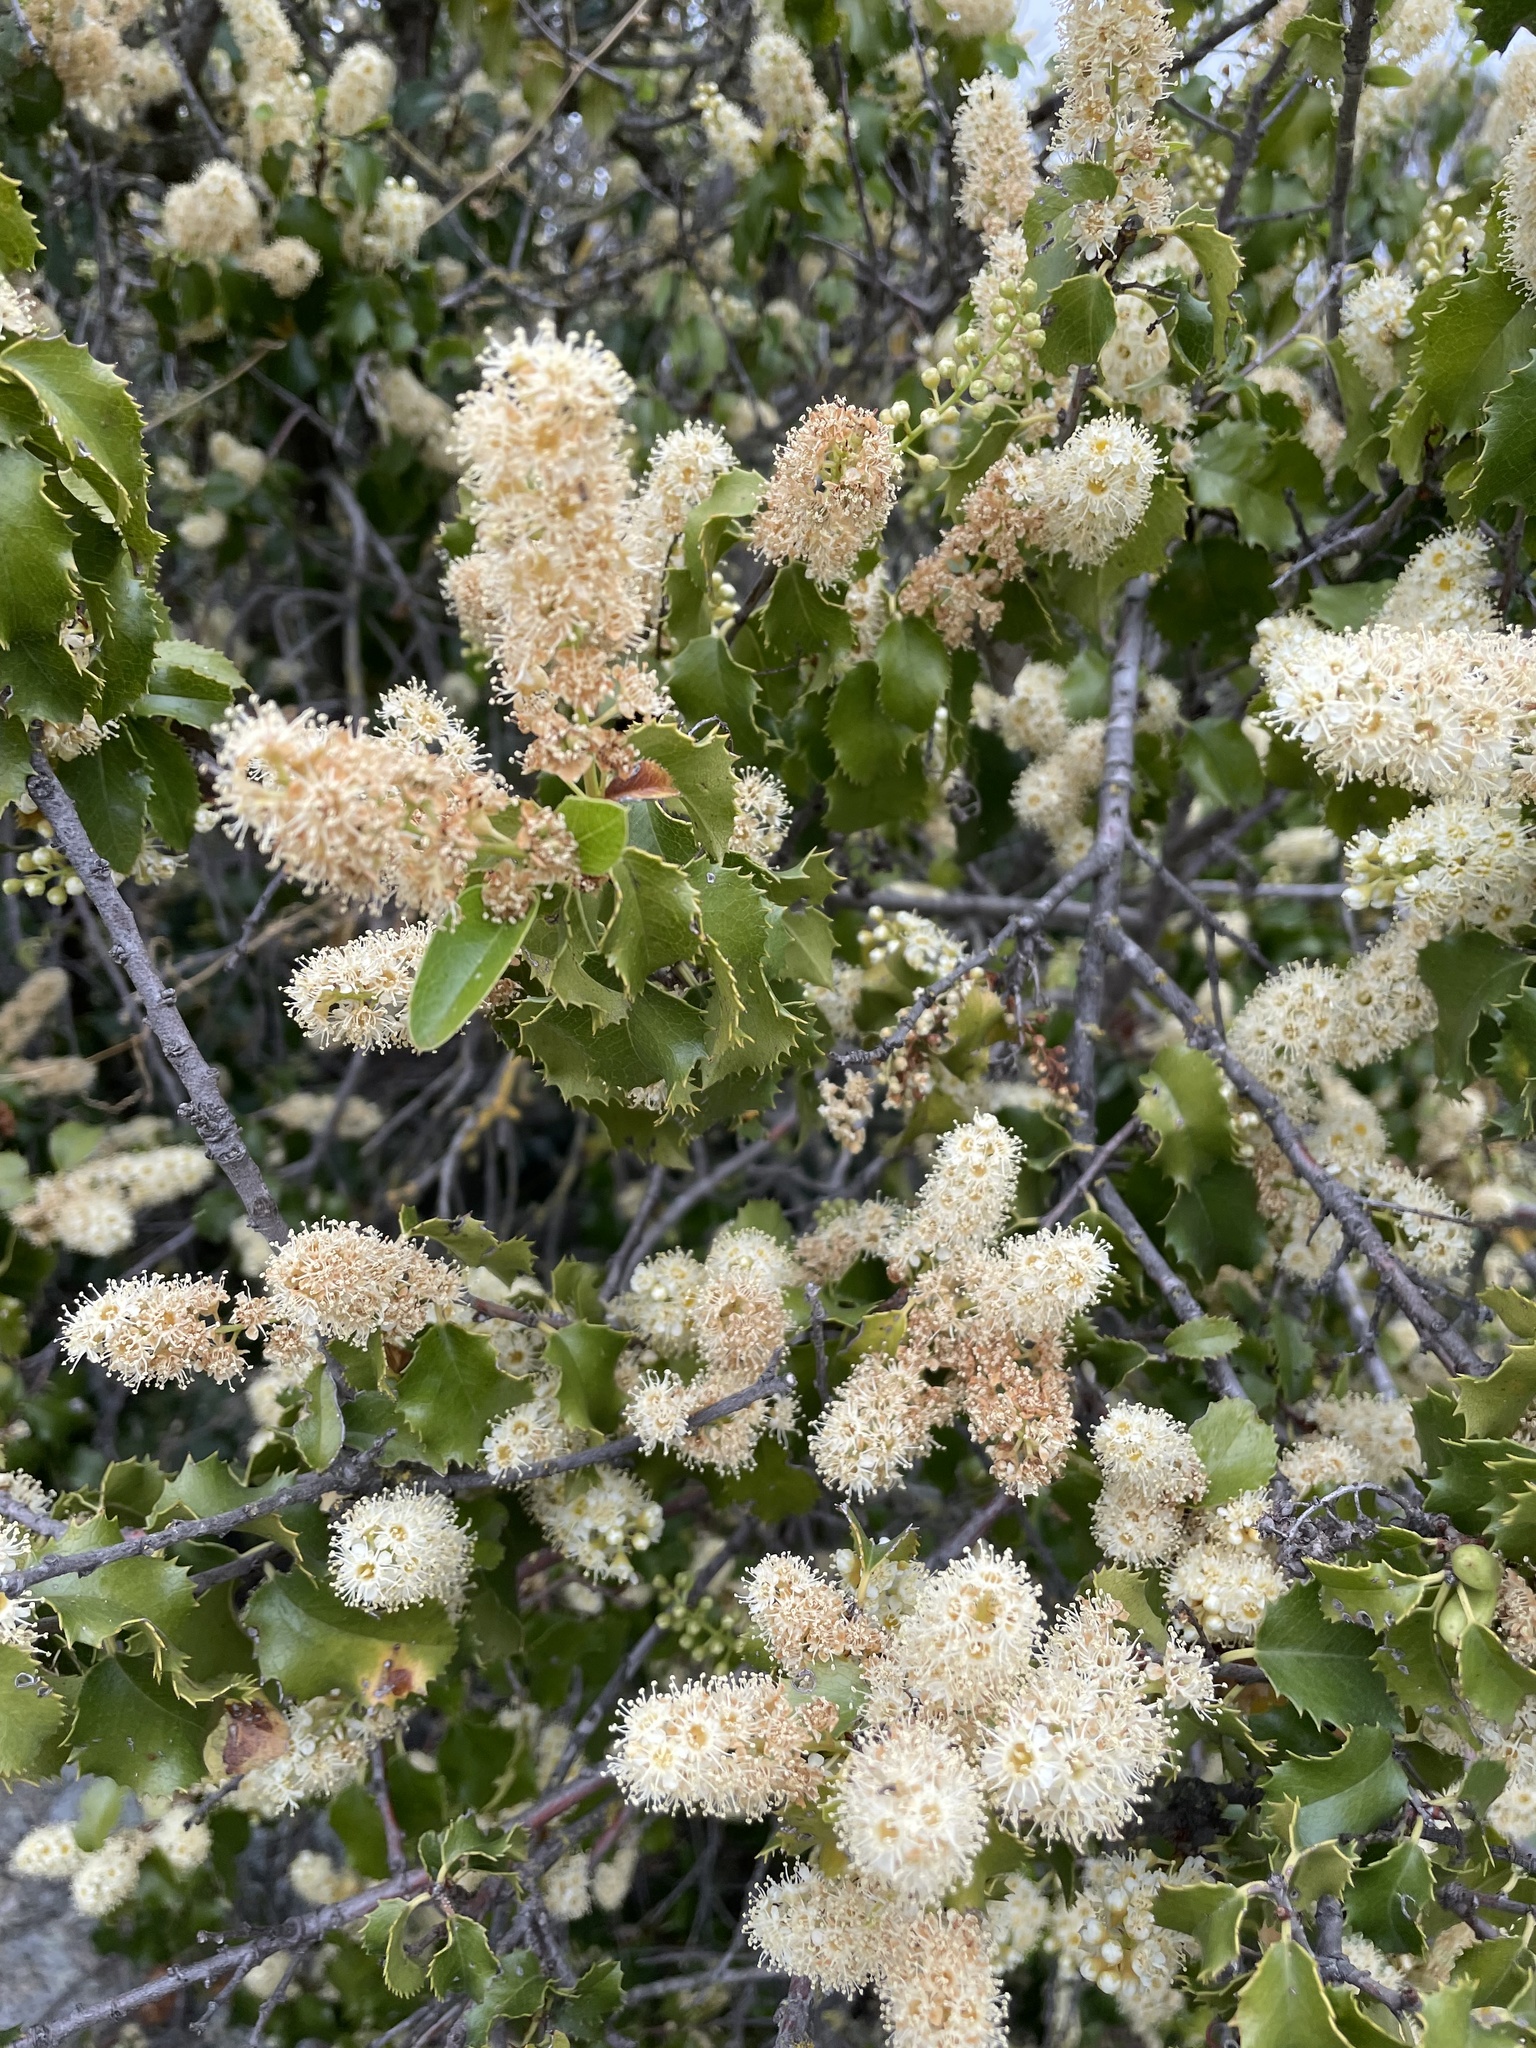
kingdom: Plantae
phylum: Tracheophyta
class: Magnoliopsida
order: Rosales
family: Rosaceae
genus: Prunus
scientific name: Prunus ilicifolia
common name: Hollyleaf cherry
